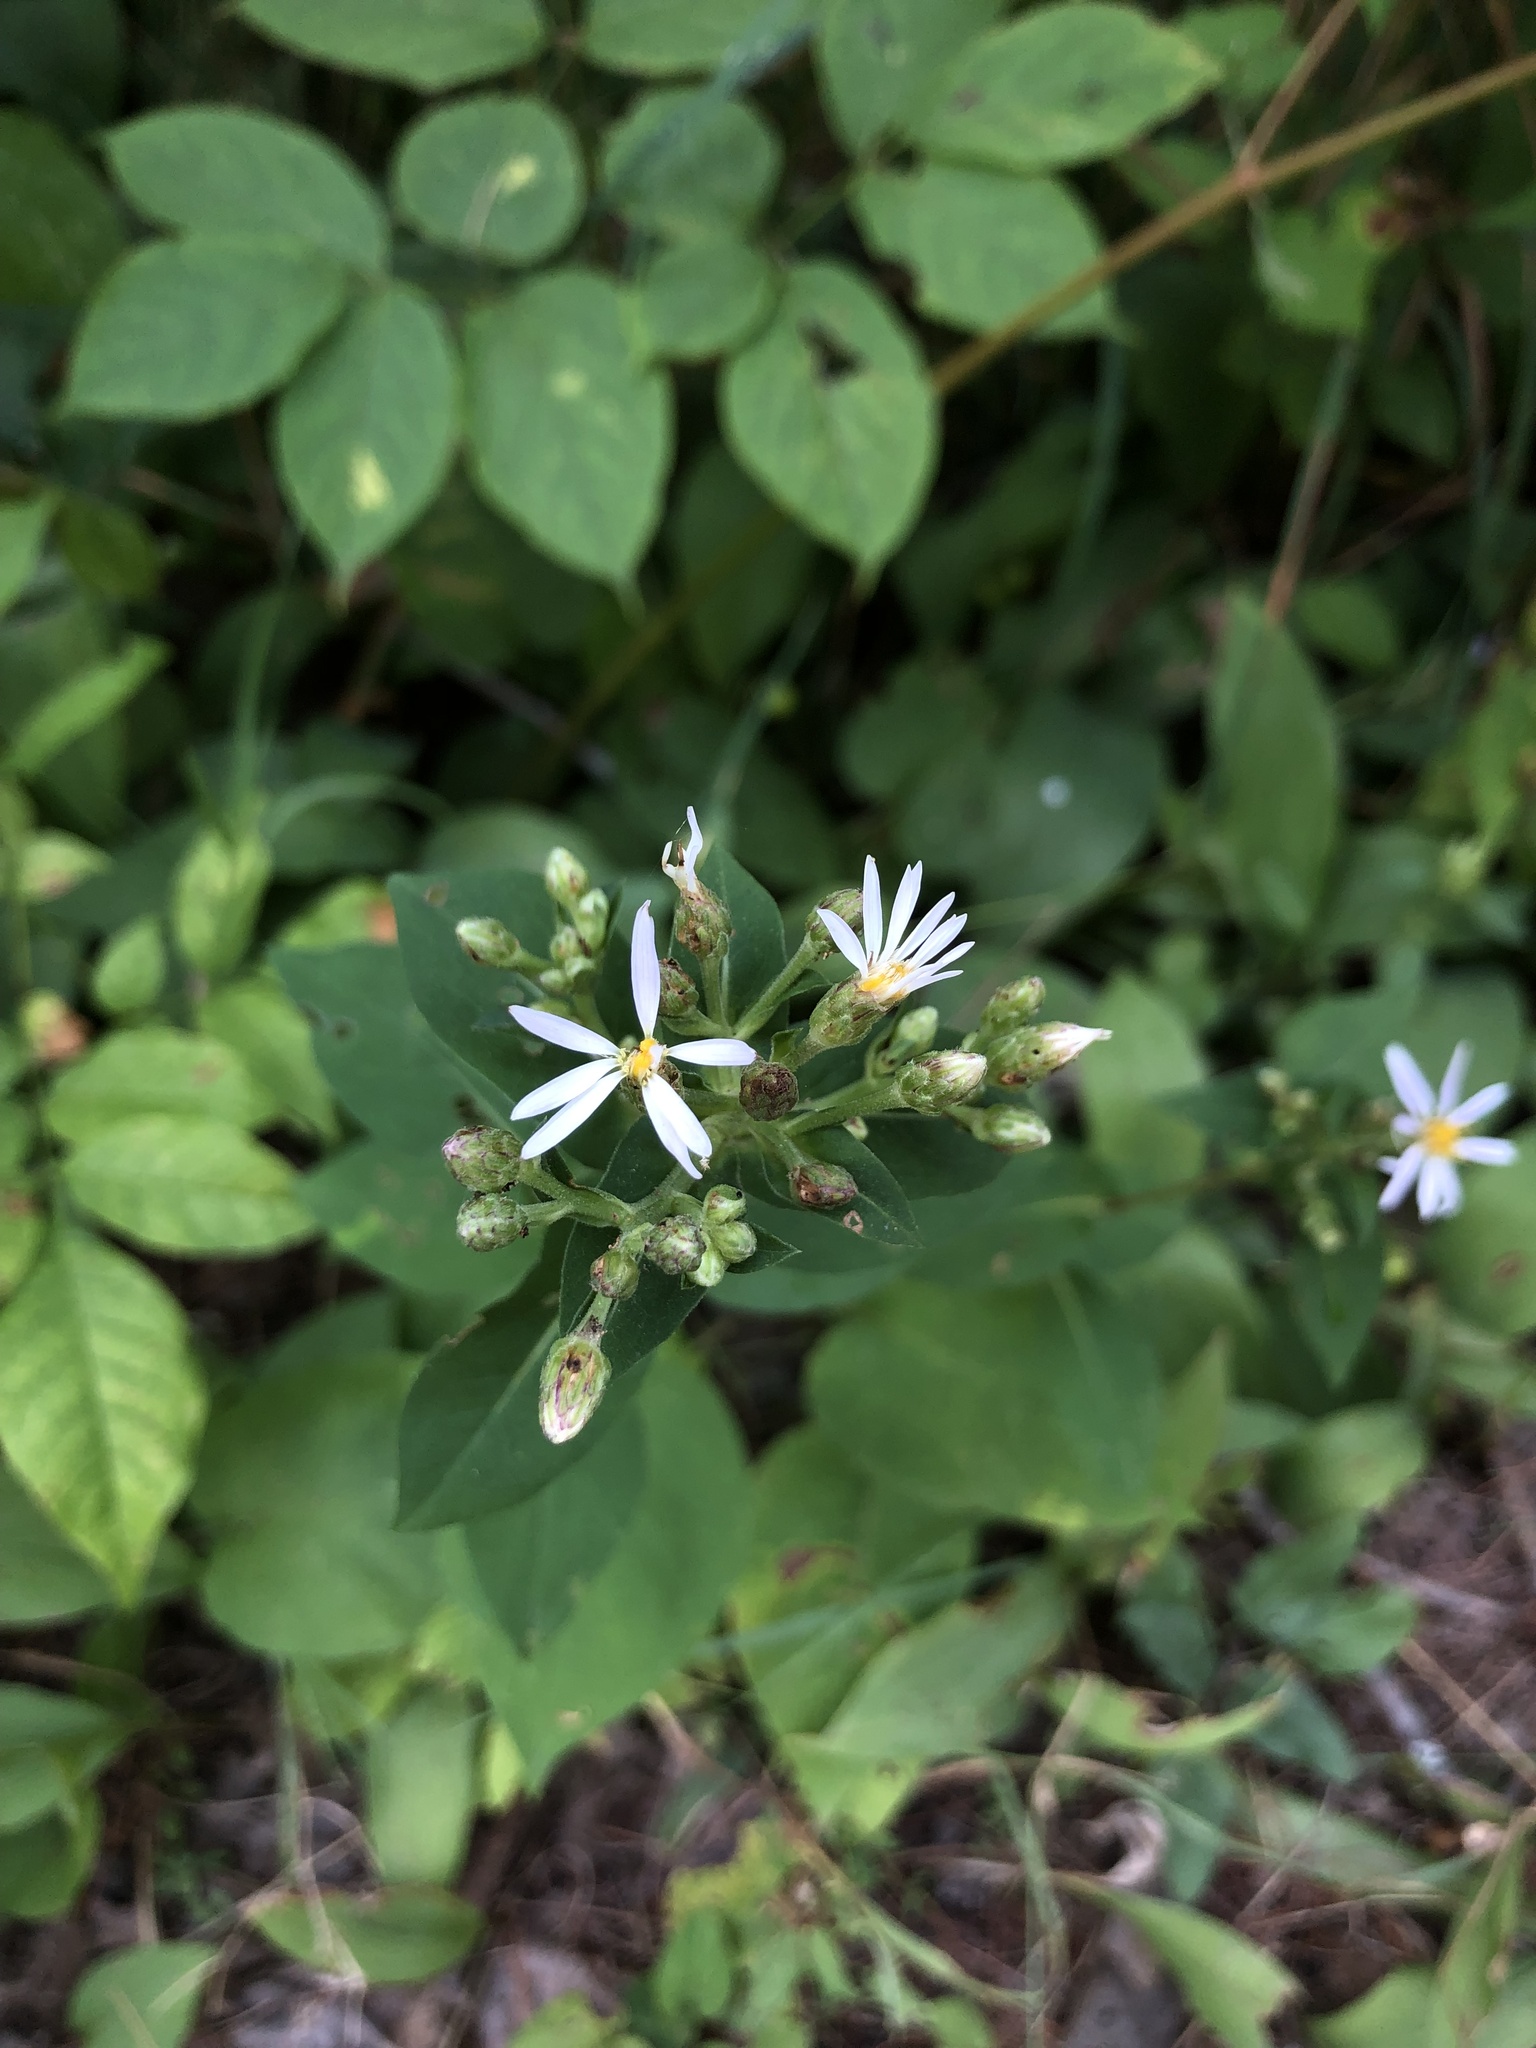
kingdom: Plantae
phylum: Tracheophyta
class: Magnoliopsida
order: Asterales
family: Asteraceae
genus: Eurybia
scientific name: Eurybia macrophylla
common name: Big-leaved aster
